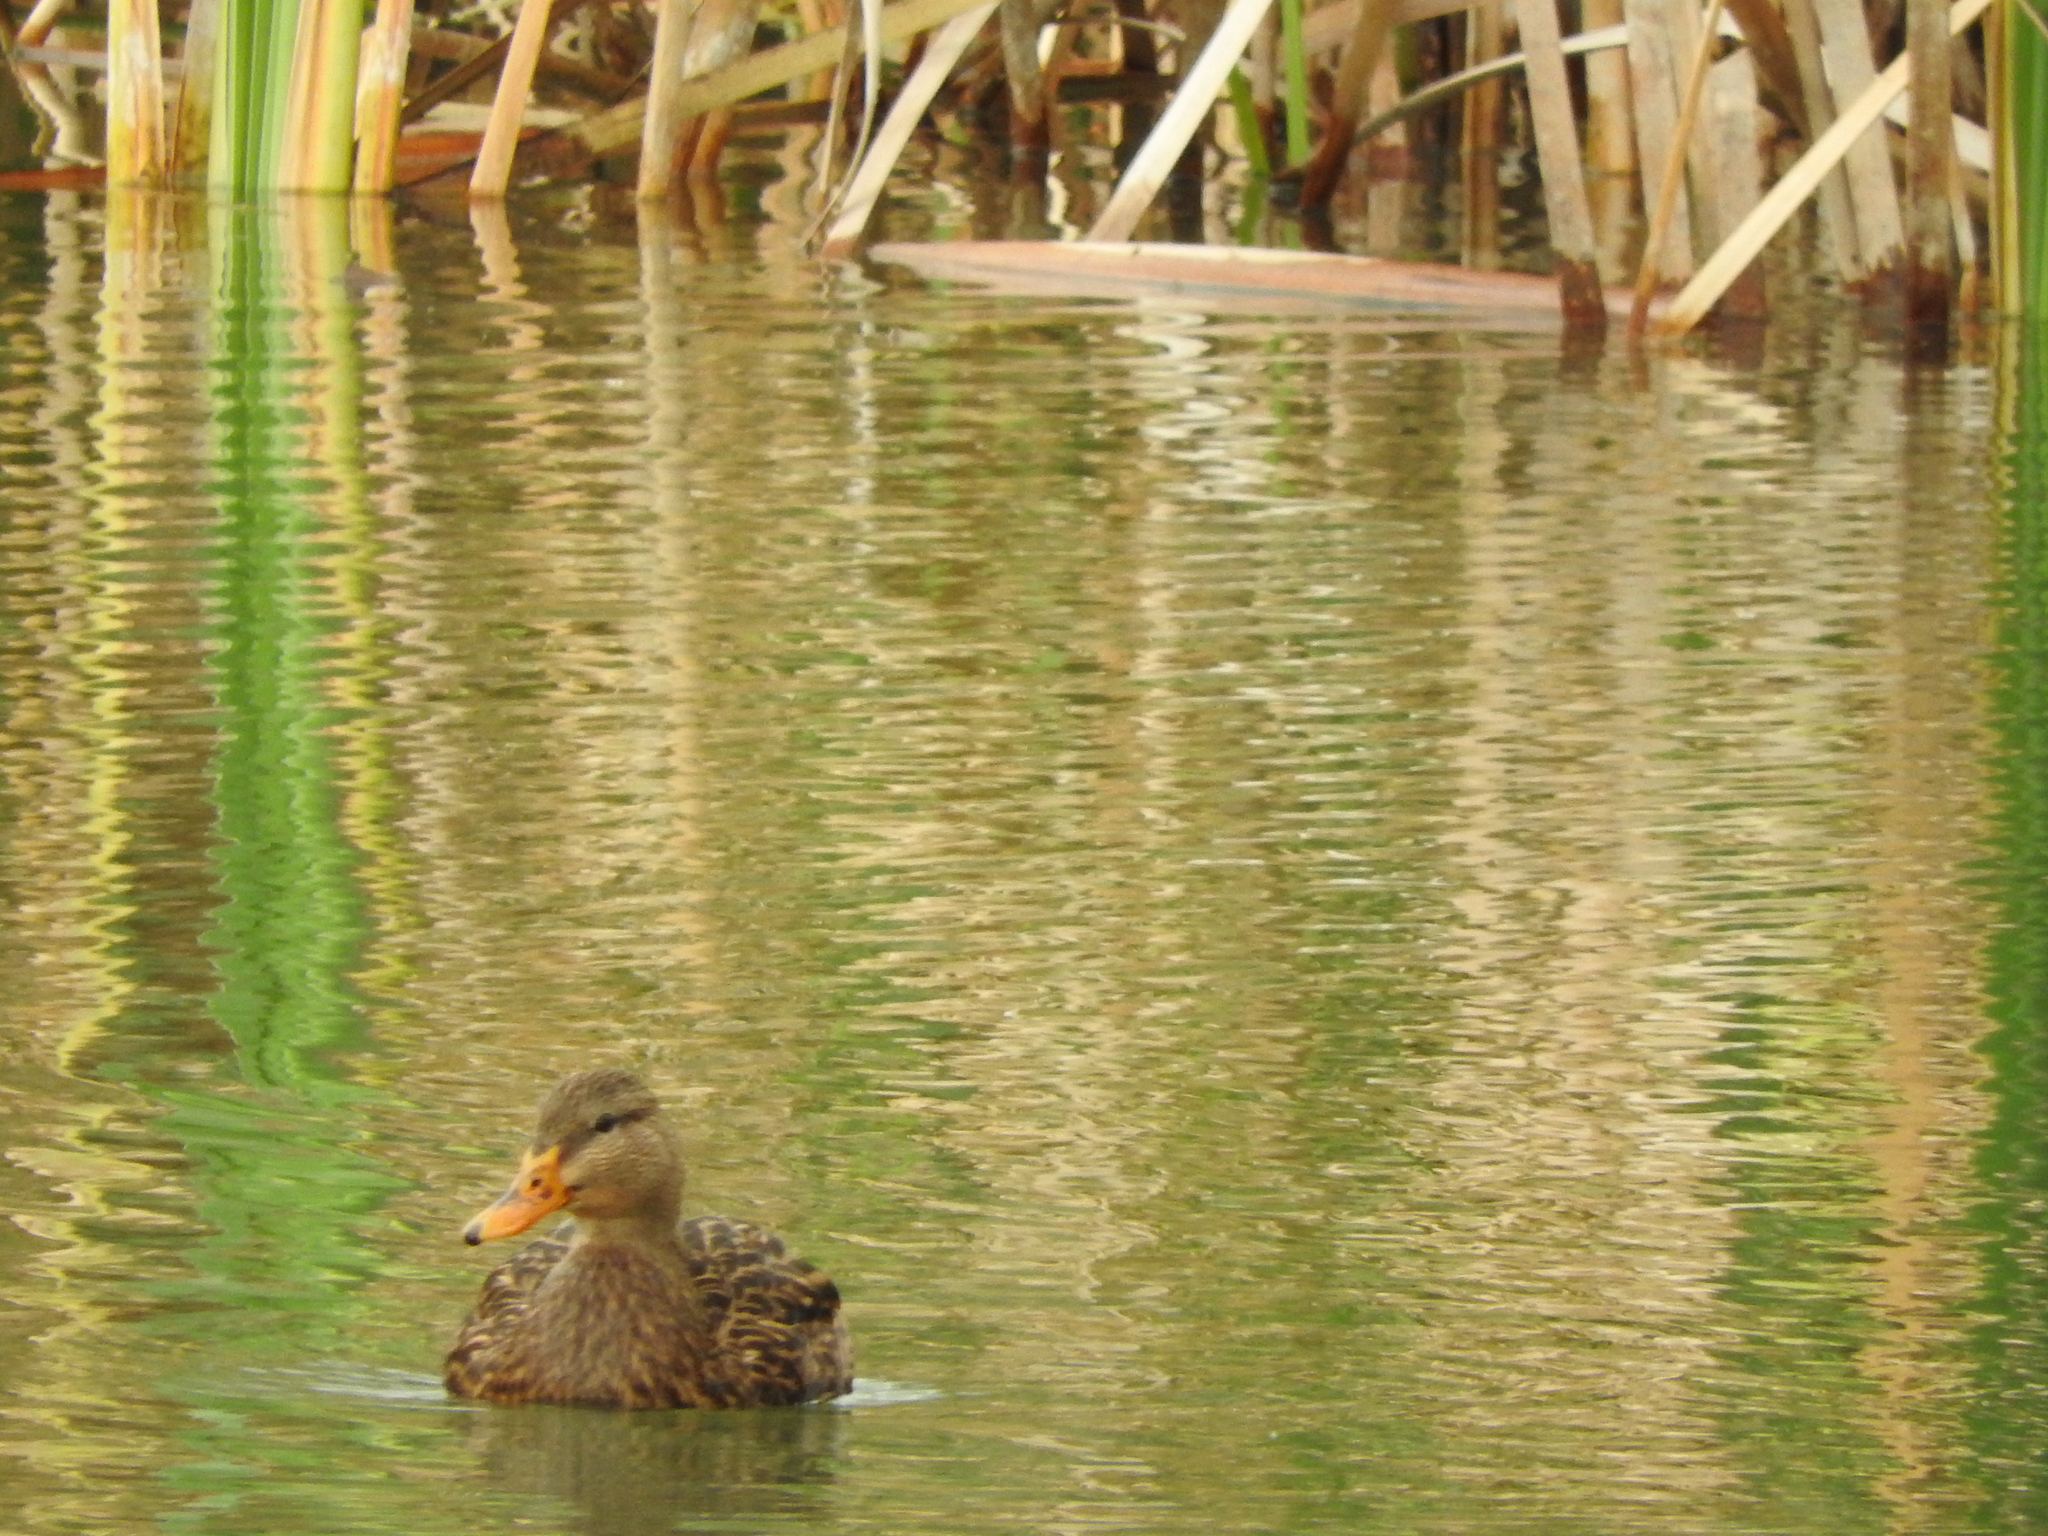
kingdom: Animalia
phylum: Chordata
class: Aves
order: Anseriformes
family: Anatidae
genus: Anas
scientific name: Anas diazi
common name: Mexican duck
